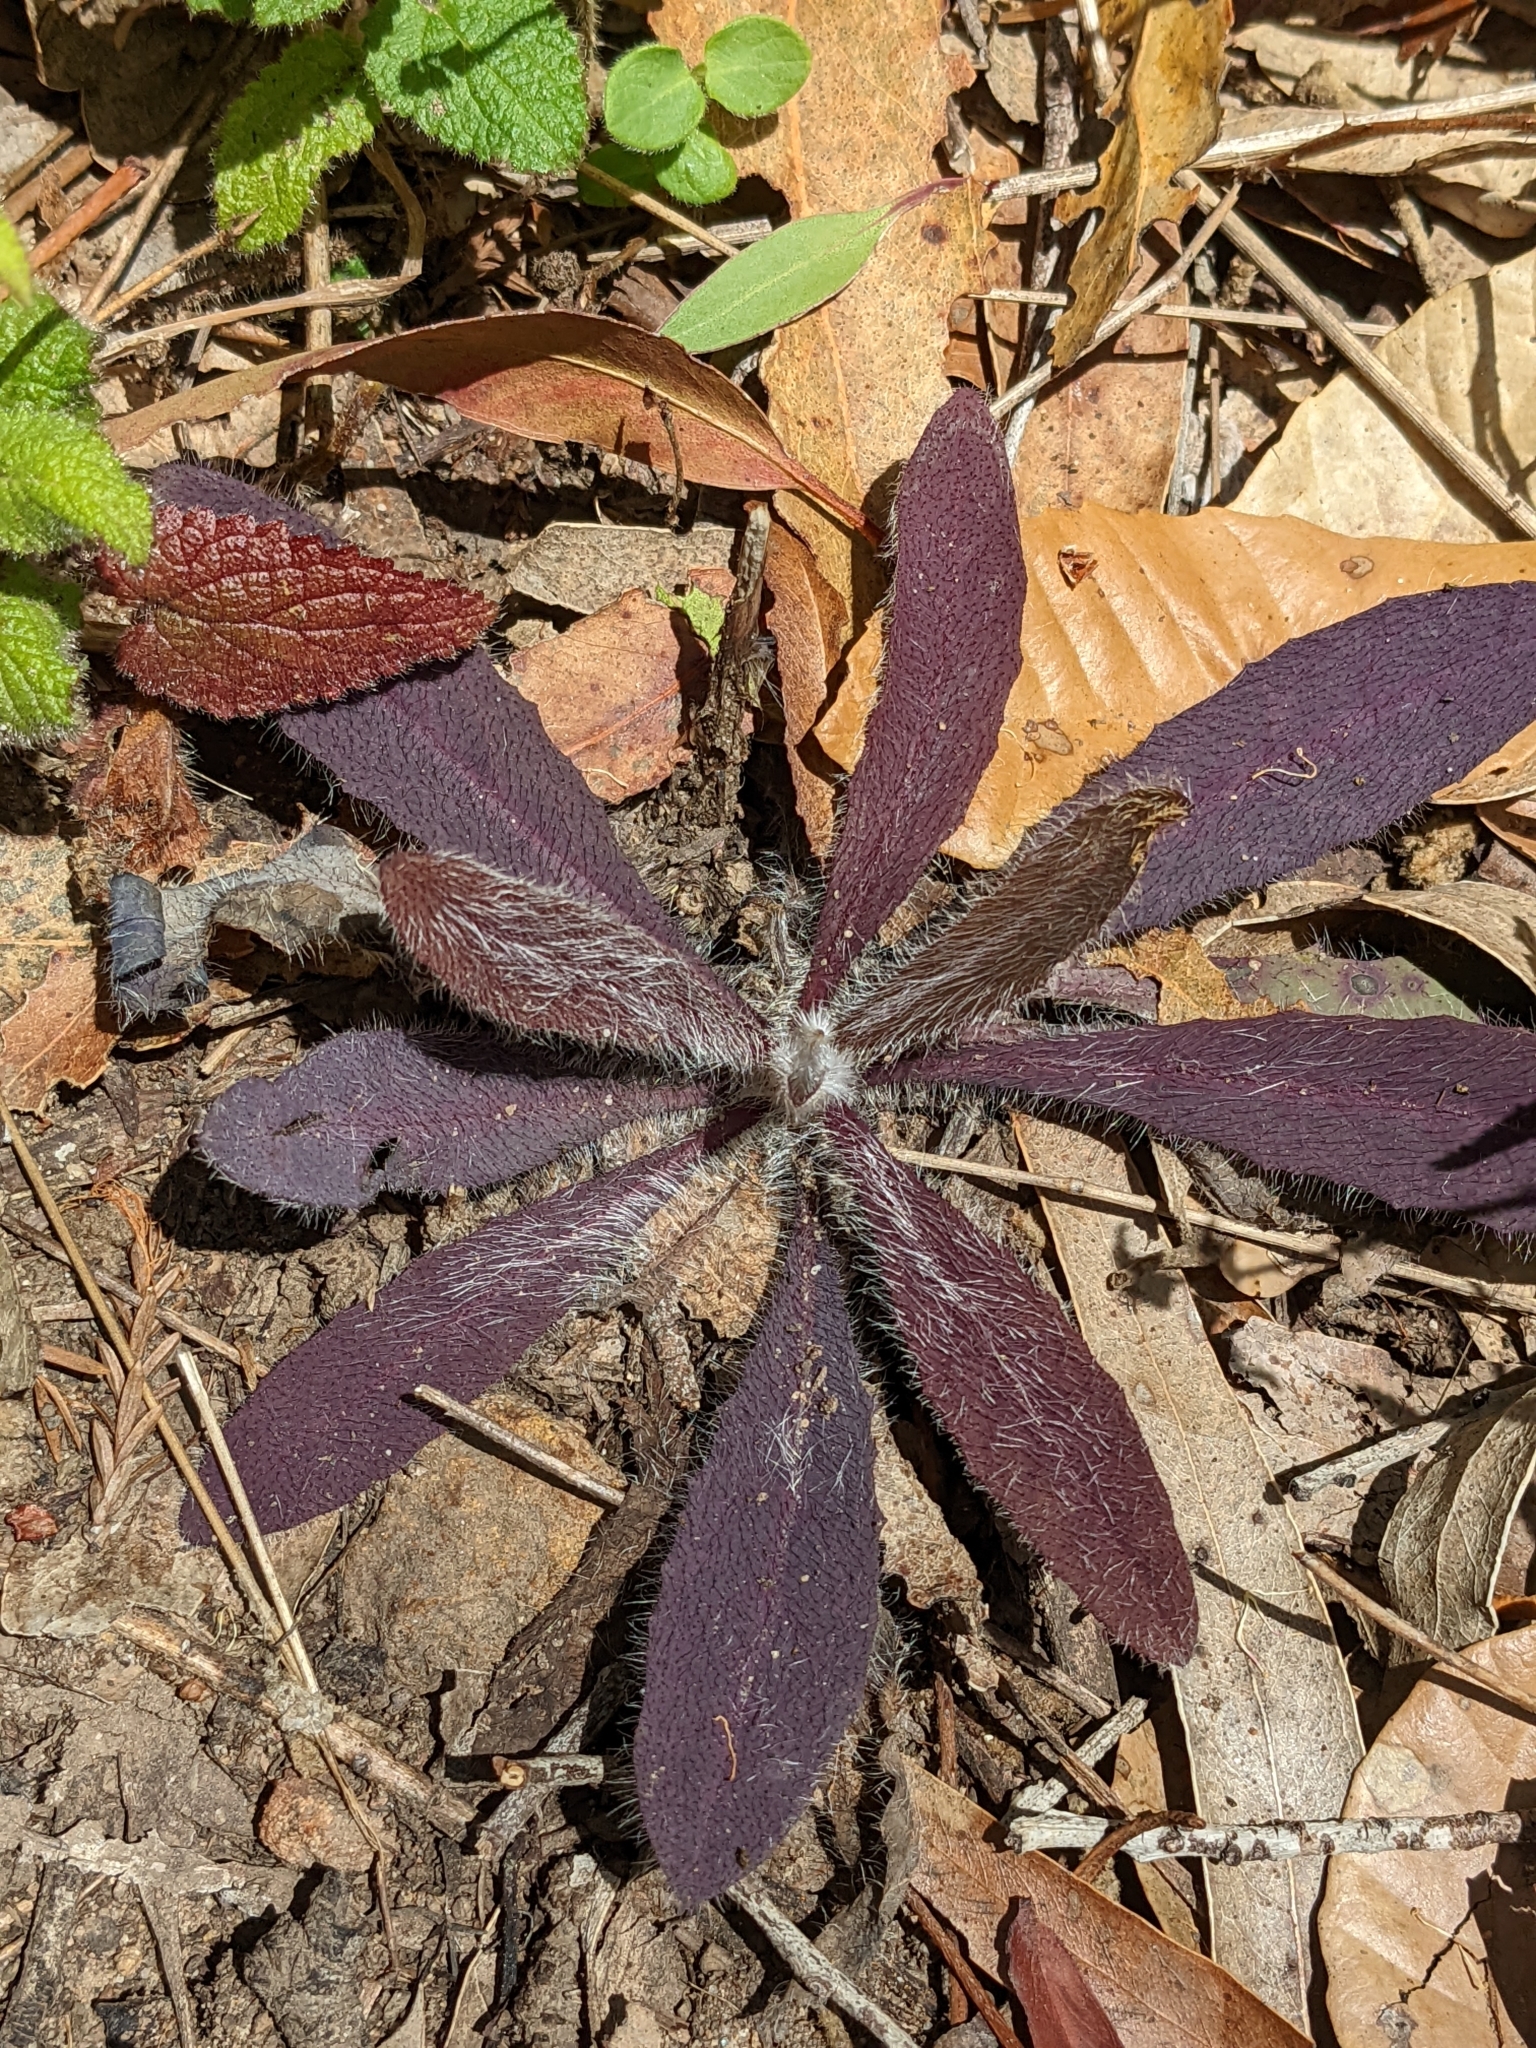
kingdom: Plantae
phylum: Tracheophyta
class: Magnoliopsida
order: Asterales
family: Asteraceae
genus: Hieracium
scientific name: Hieracium albiflorum
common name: White hawkweed
